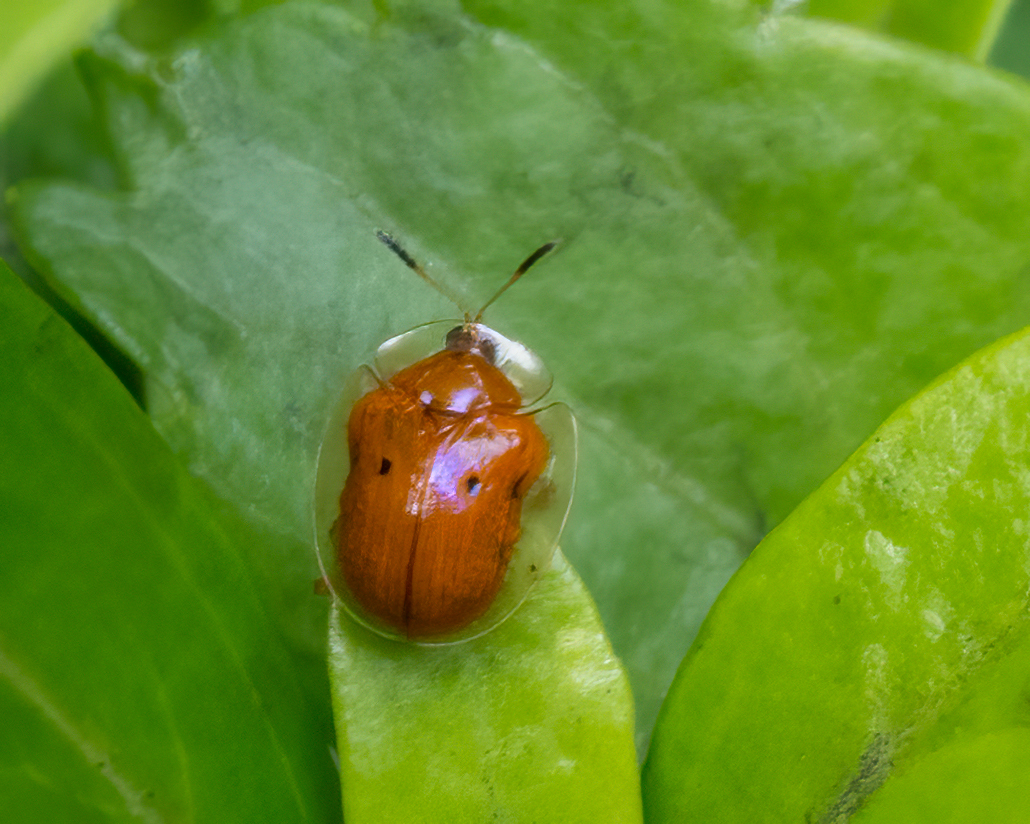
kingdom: Animalia
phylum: Arthropoda
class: Insecta
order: Coleoptera
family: Chrysomelidae
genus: Charidotella
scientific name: Charidotella sexpunctata
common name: Golden tortoise beetle
